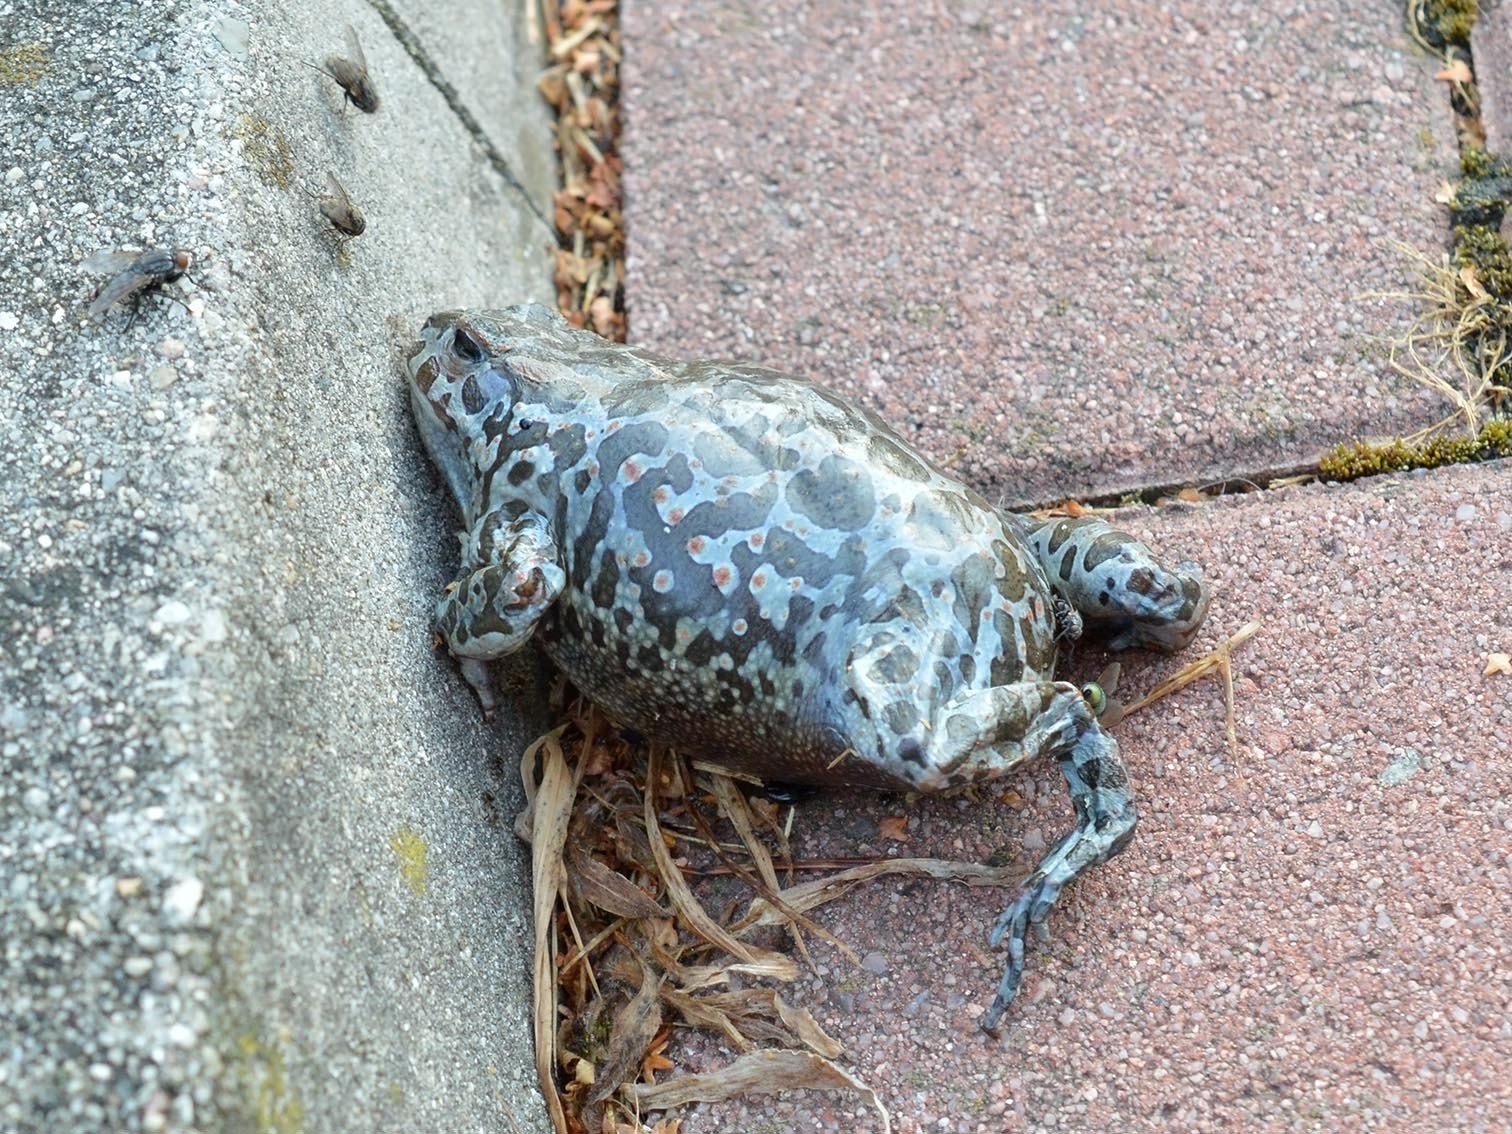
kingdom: Animalia
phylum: Chordata
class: Amphibia
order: Anura
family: Bufonidae
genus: Bufotes
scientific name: Bufotes viridis
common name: European green toad
